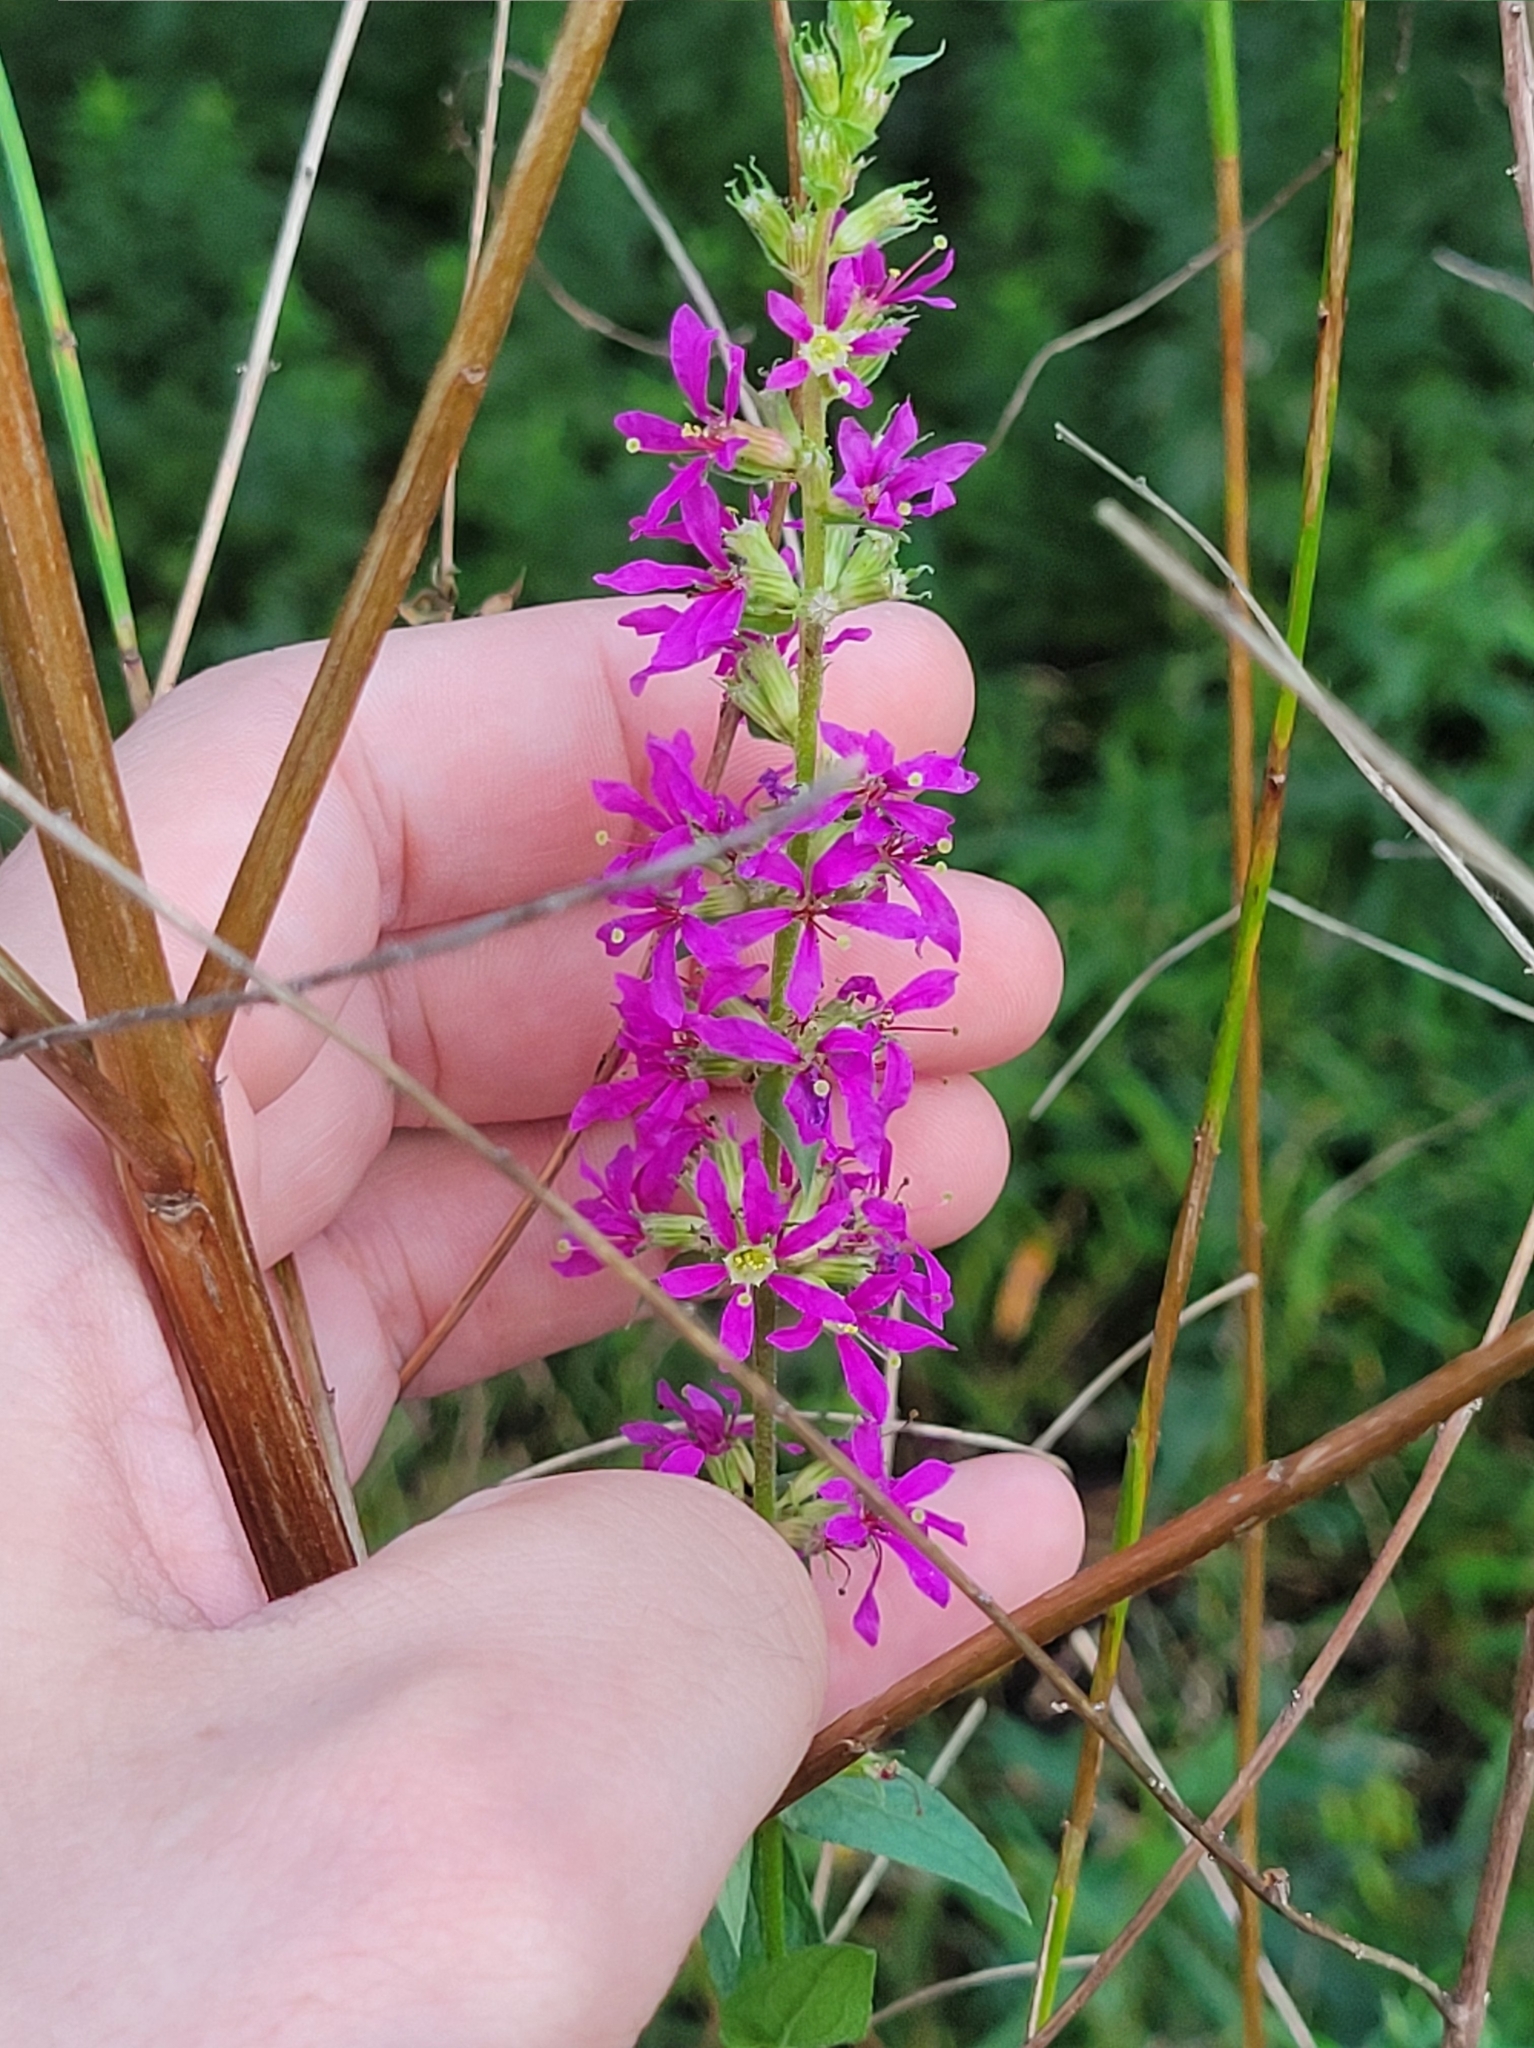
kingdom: Plantae
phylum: Tracheophyta
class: Magnoliopsida
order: Myrtales
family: Lythraceae
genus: Lythrum
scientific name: Lythrum salicaria
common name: Purple loosestrife
